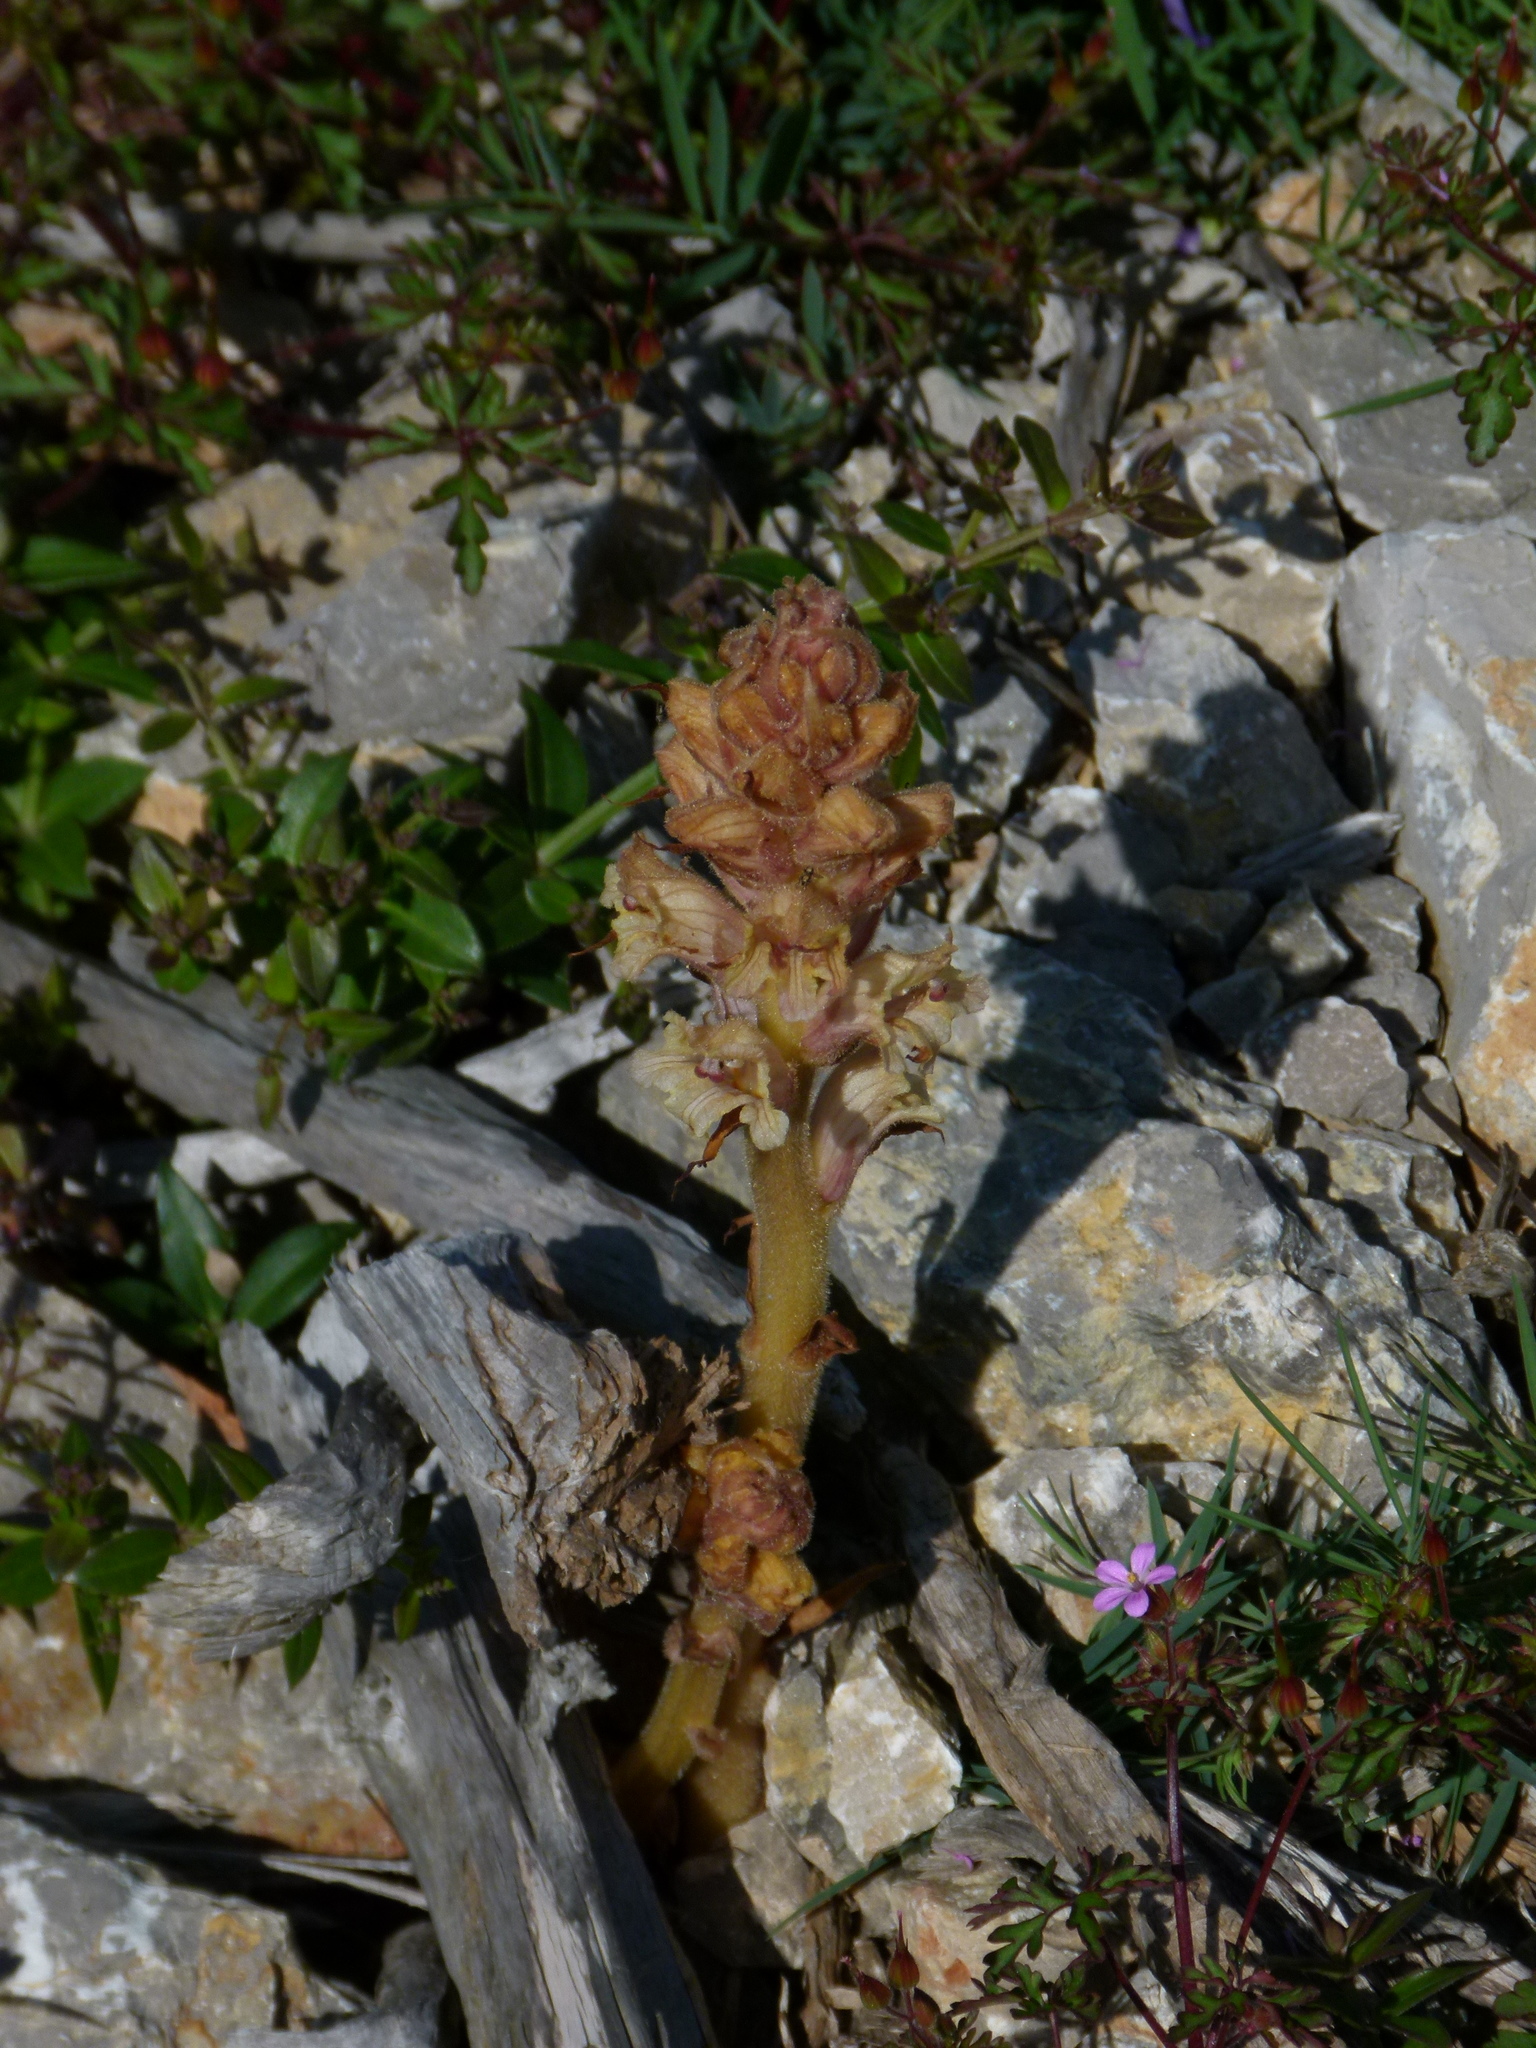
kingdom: Plantae
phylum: Tracheophyta
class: Magnoliopsida
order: Lamiales
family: Orobanchaceae
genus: Orobanche
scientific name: Orobanche santolinae
